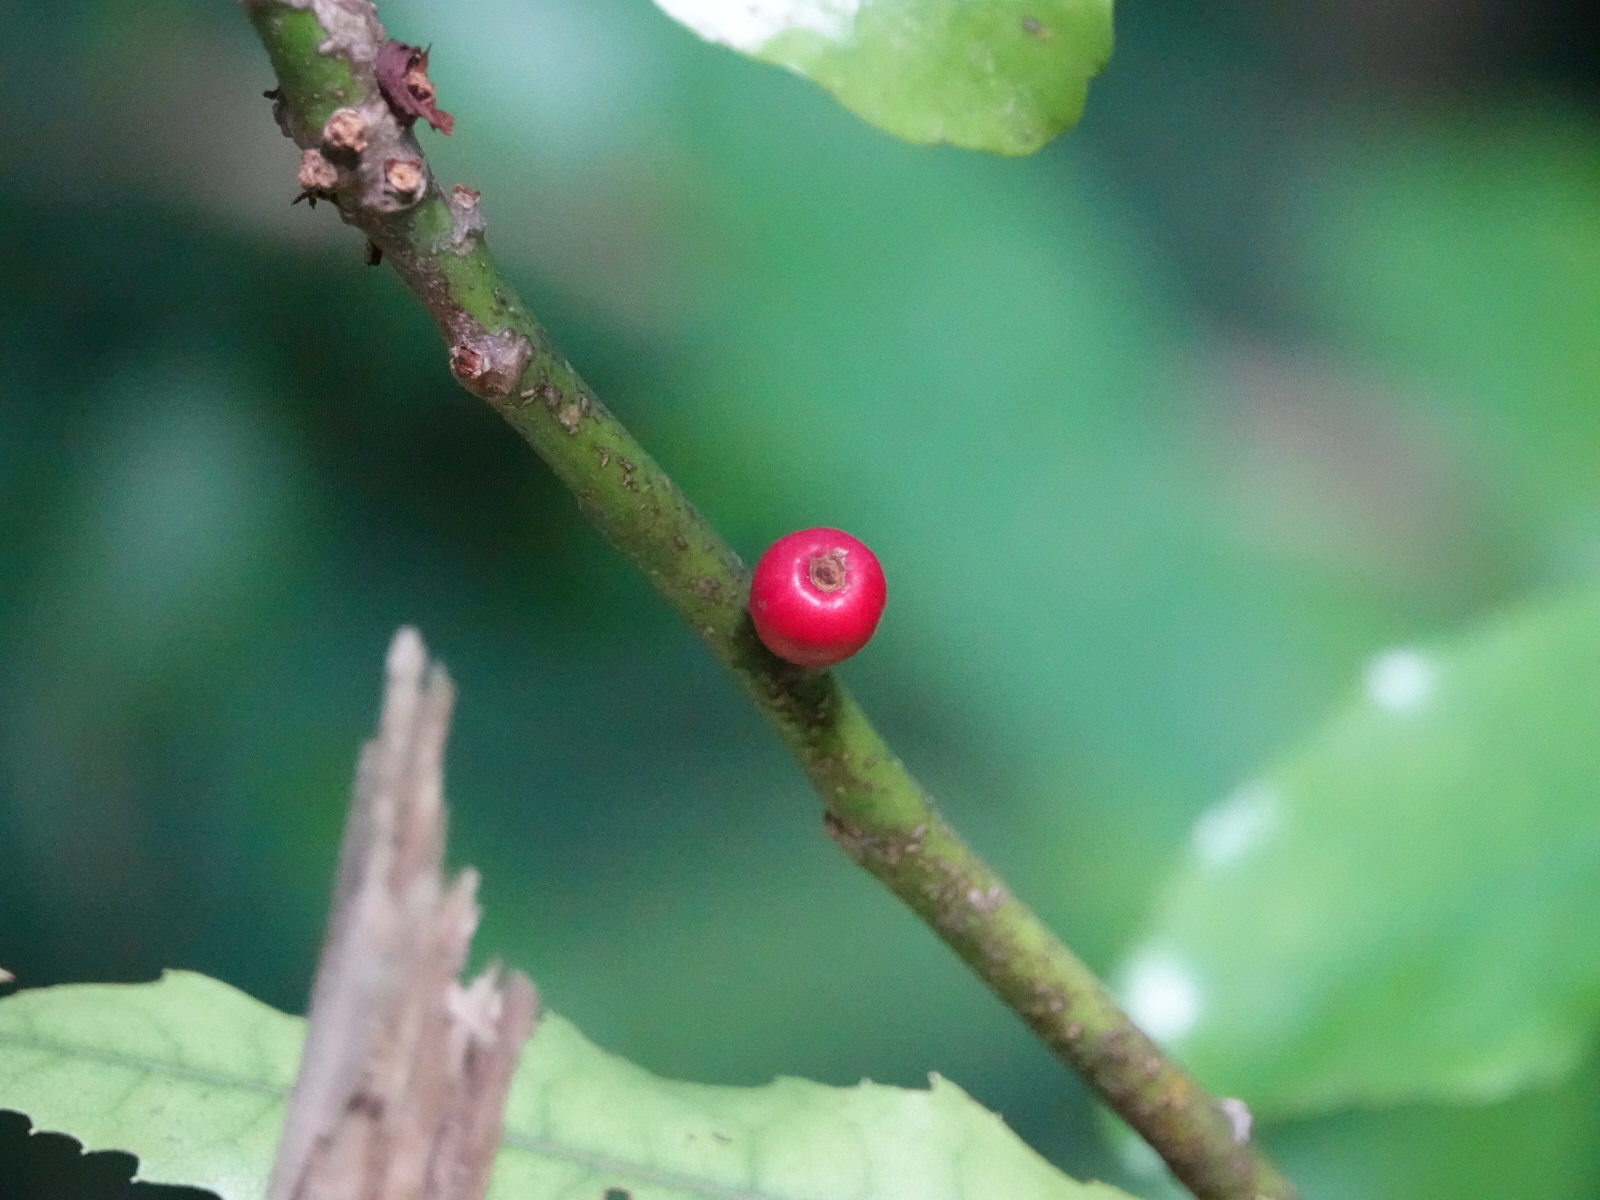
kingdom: Plantae
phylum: Tracheophyta
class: Magnoliopsida
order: Asterales
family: Alseuosmiaceae
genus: Alseuosmia
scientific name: Alseuosmia macrophylla
